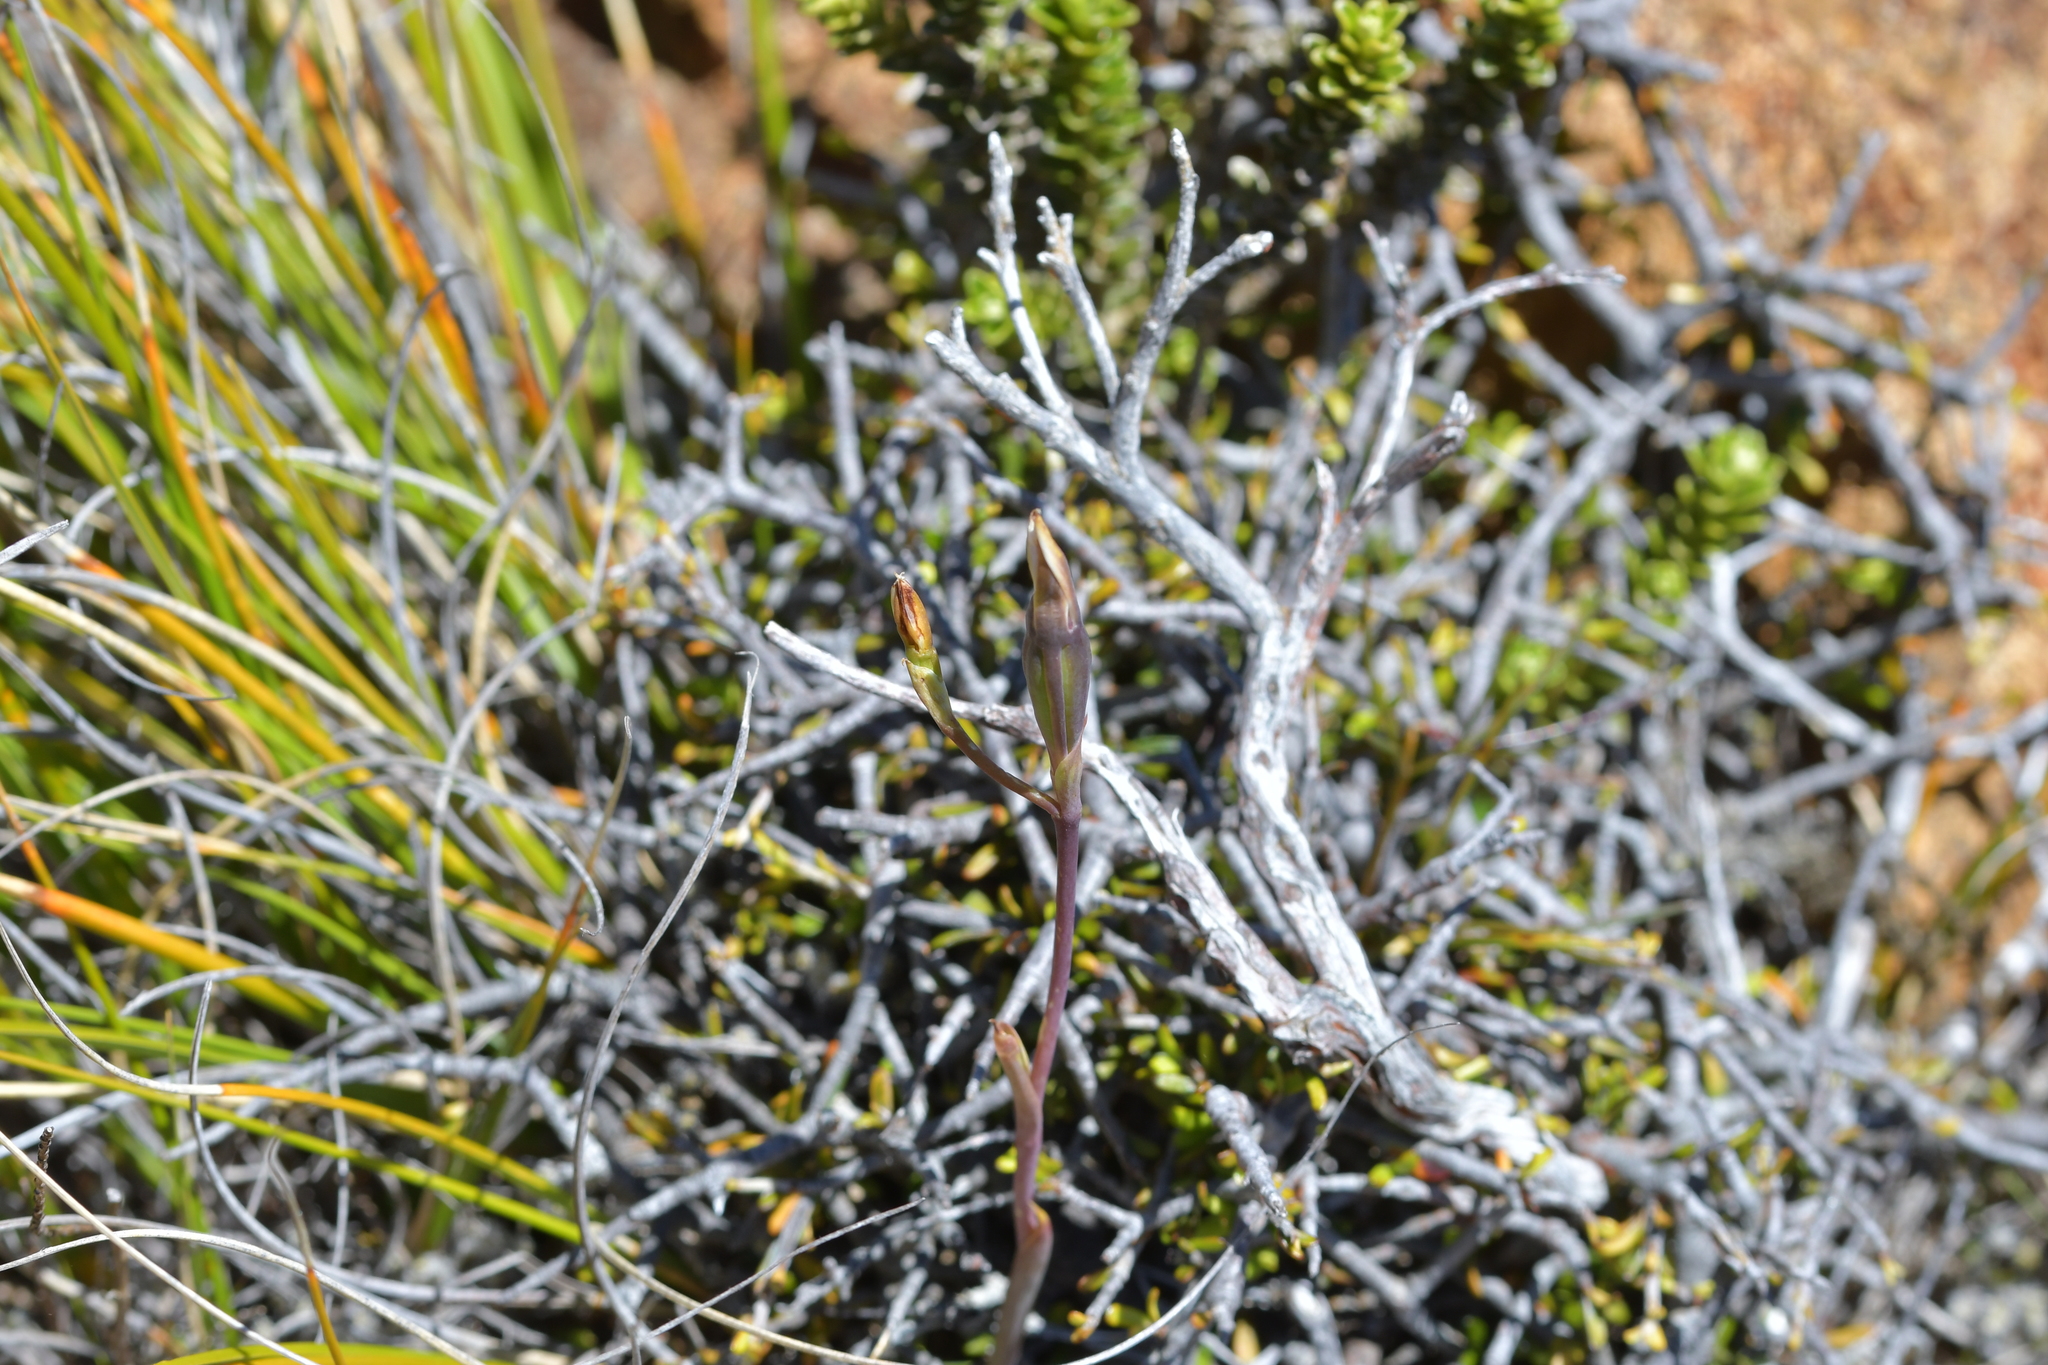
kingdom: Plantae
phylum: Tracheophyta
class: Liliopsida
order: Asparagales
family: Orchidaceae
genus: Thelymitra
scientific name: Thelymitra longifolia
